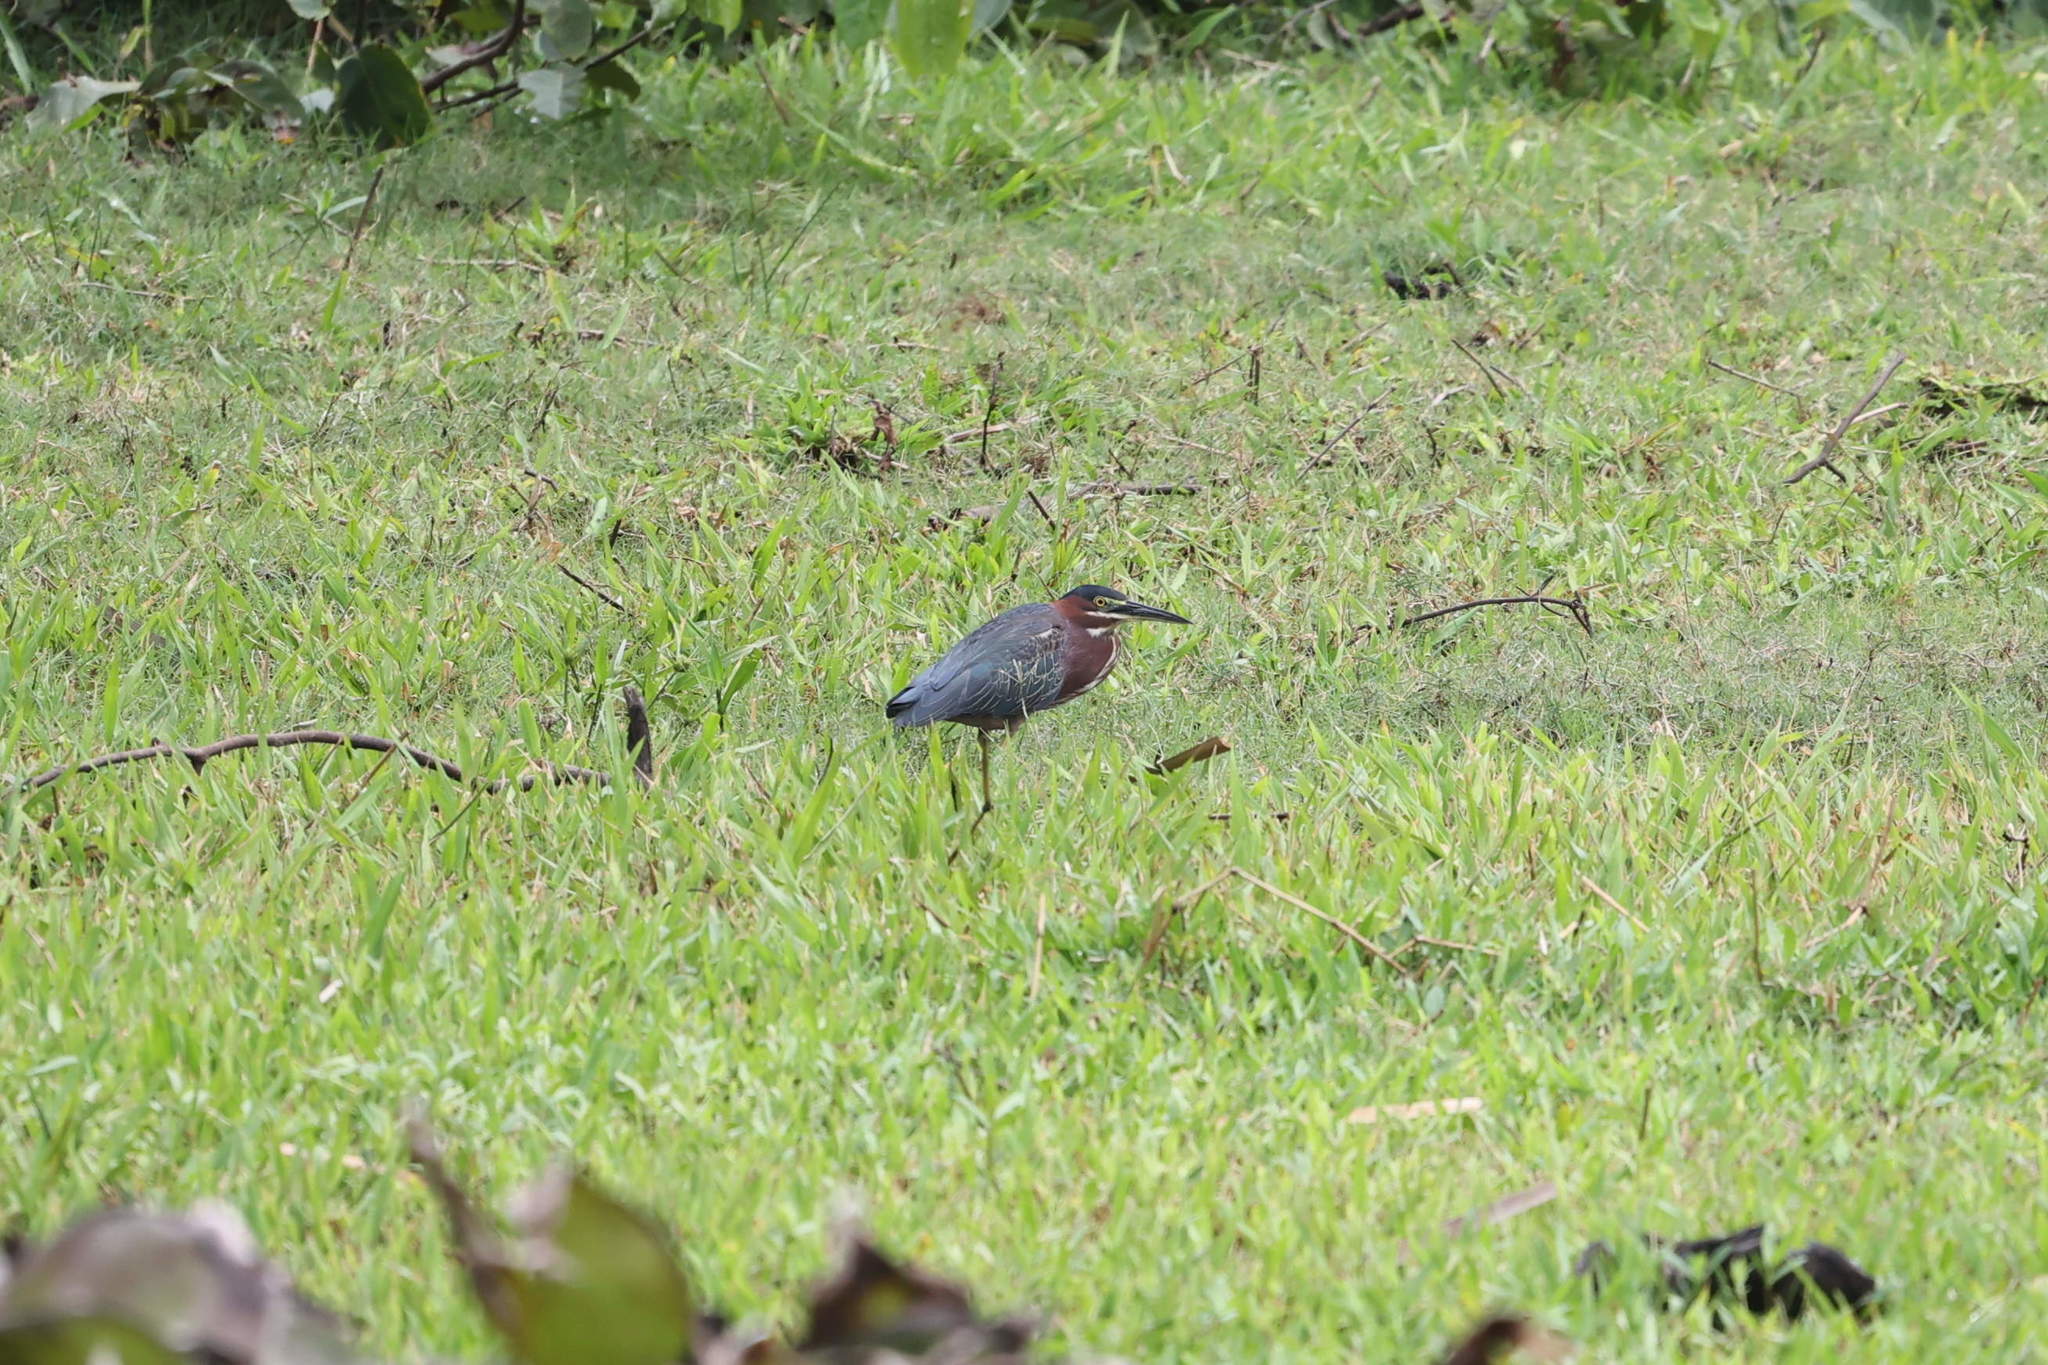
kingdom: Animalia
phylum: Chordata
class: Aves
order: Pelecaniformes
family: Ardeidae
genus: Butorides
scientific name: Butorides virescens
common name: Green heron
